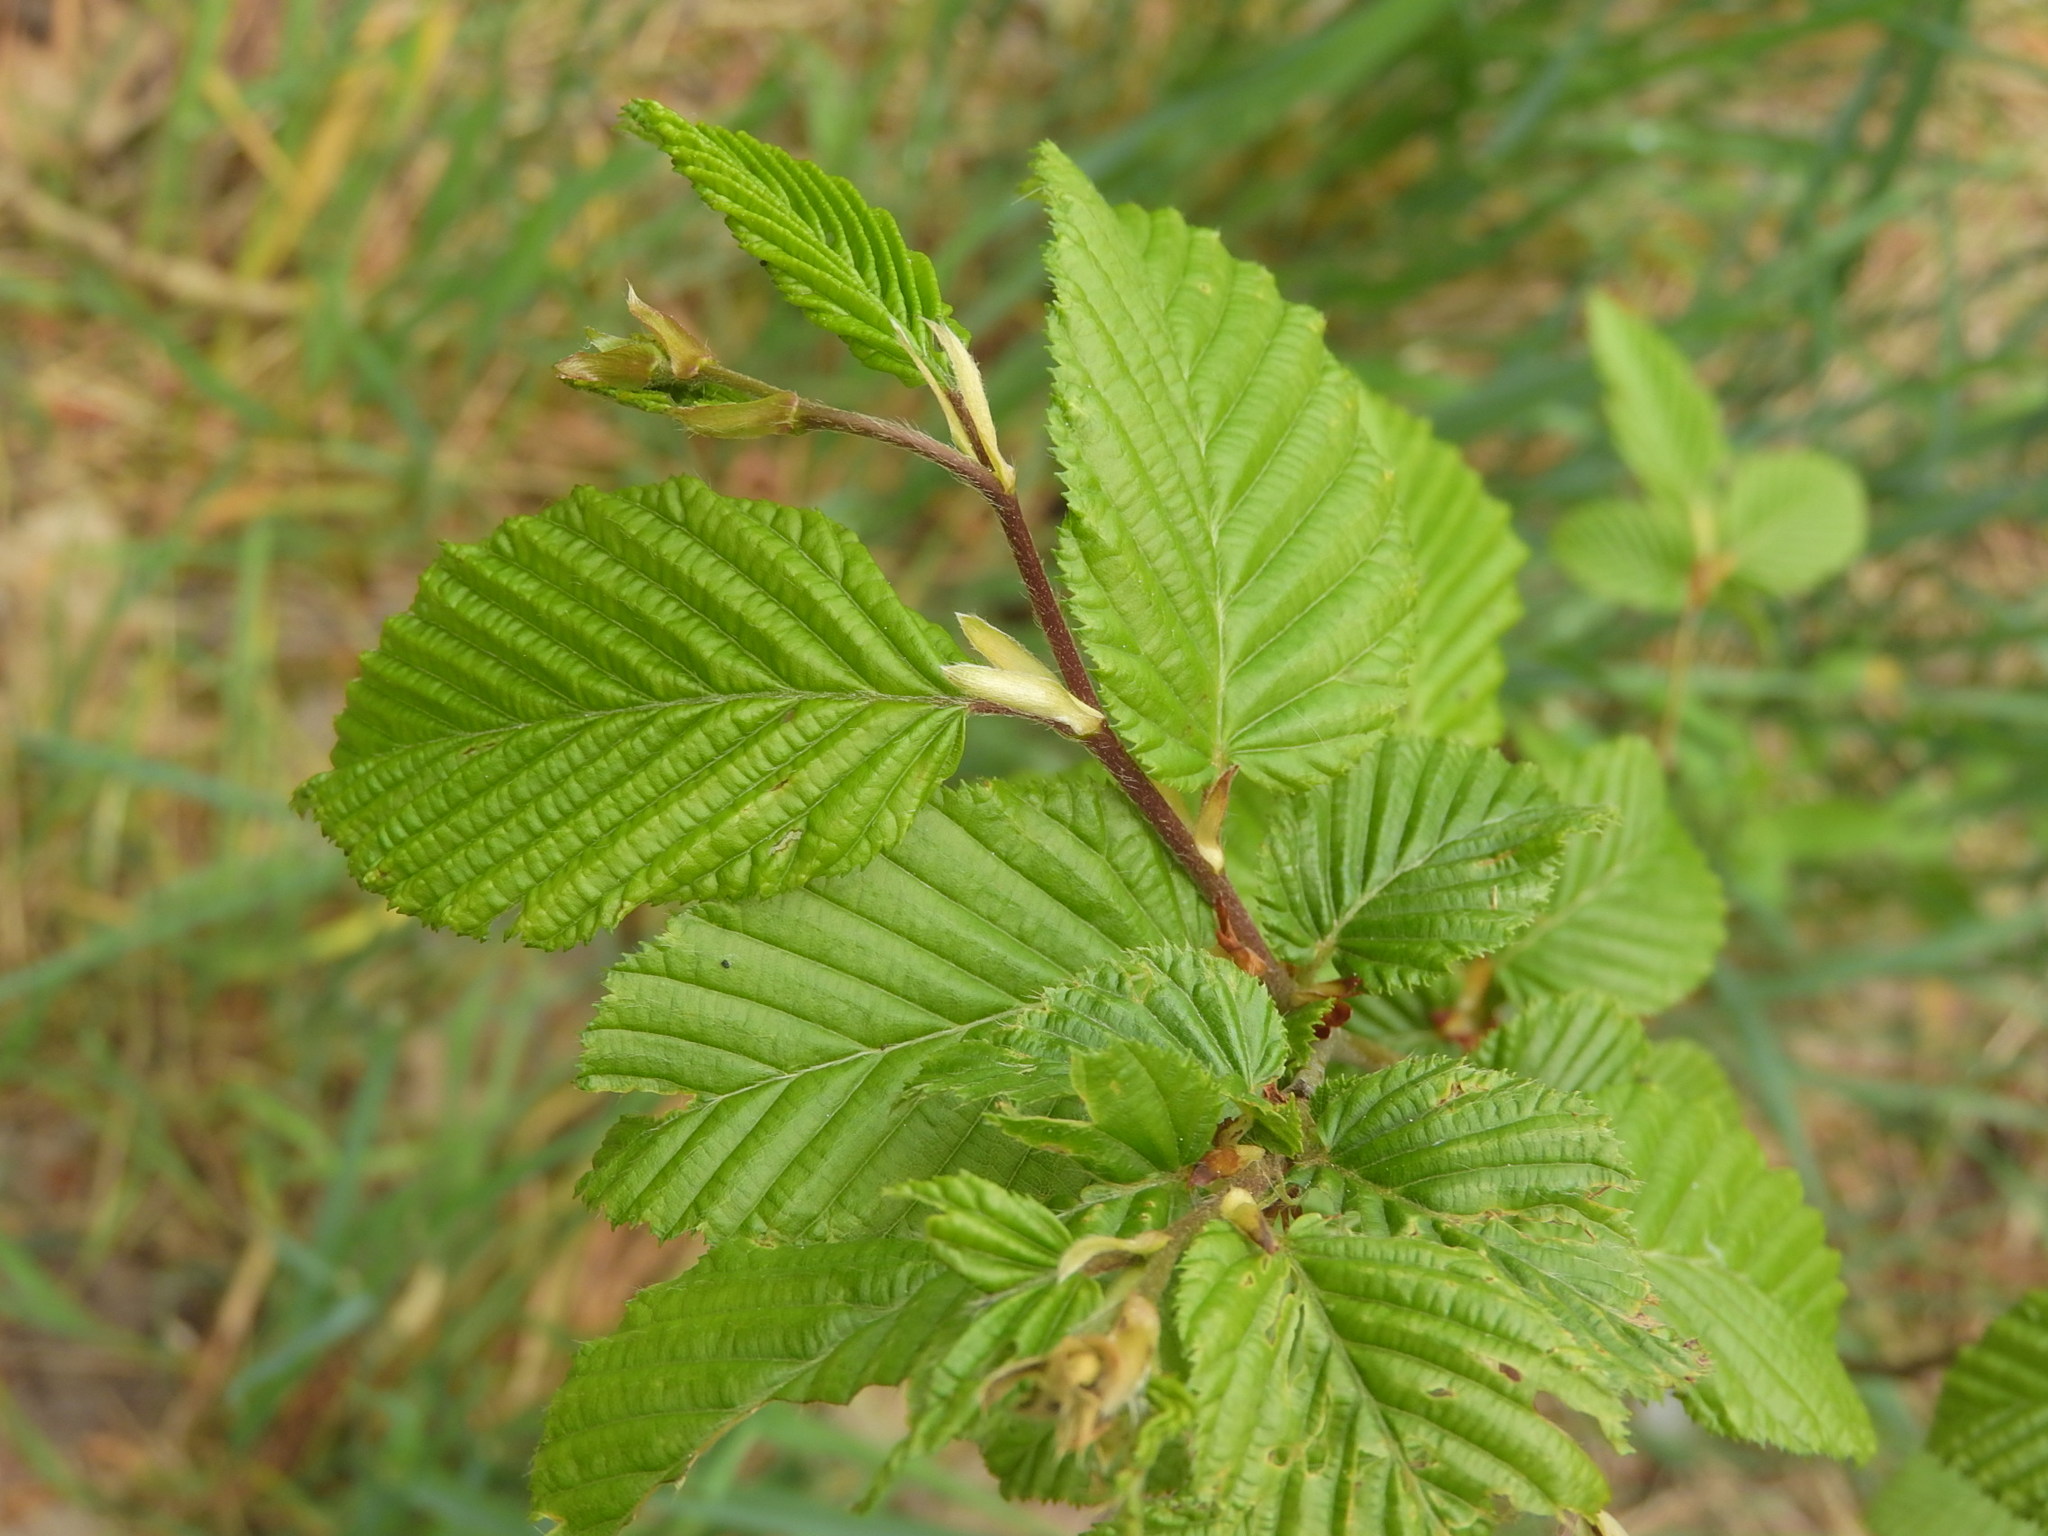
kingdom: Plantae
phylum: Tracheophyta
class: Magnoliopsida
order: Fagales
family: Betulaceae
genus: Carpinus
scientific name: Carpinus betulus
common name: Hornbeam
